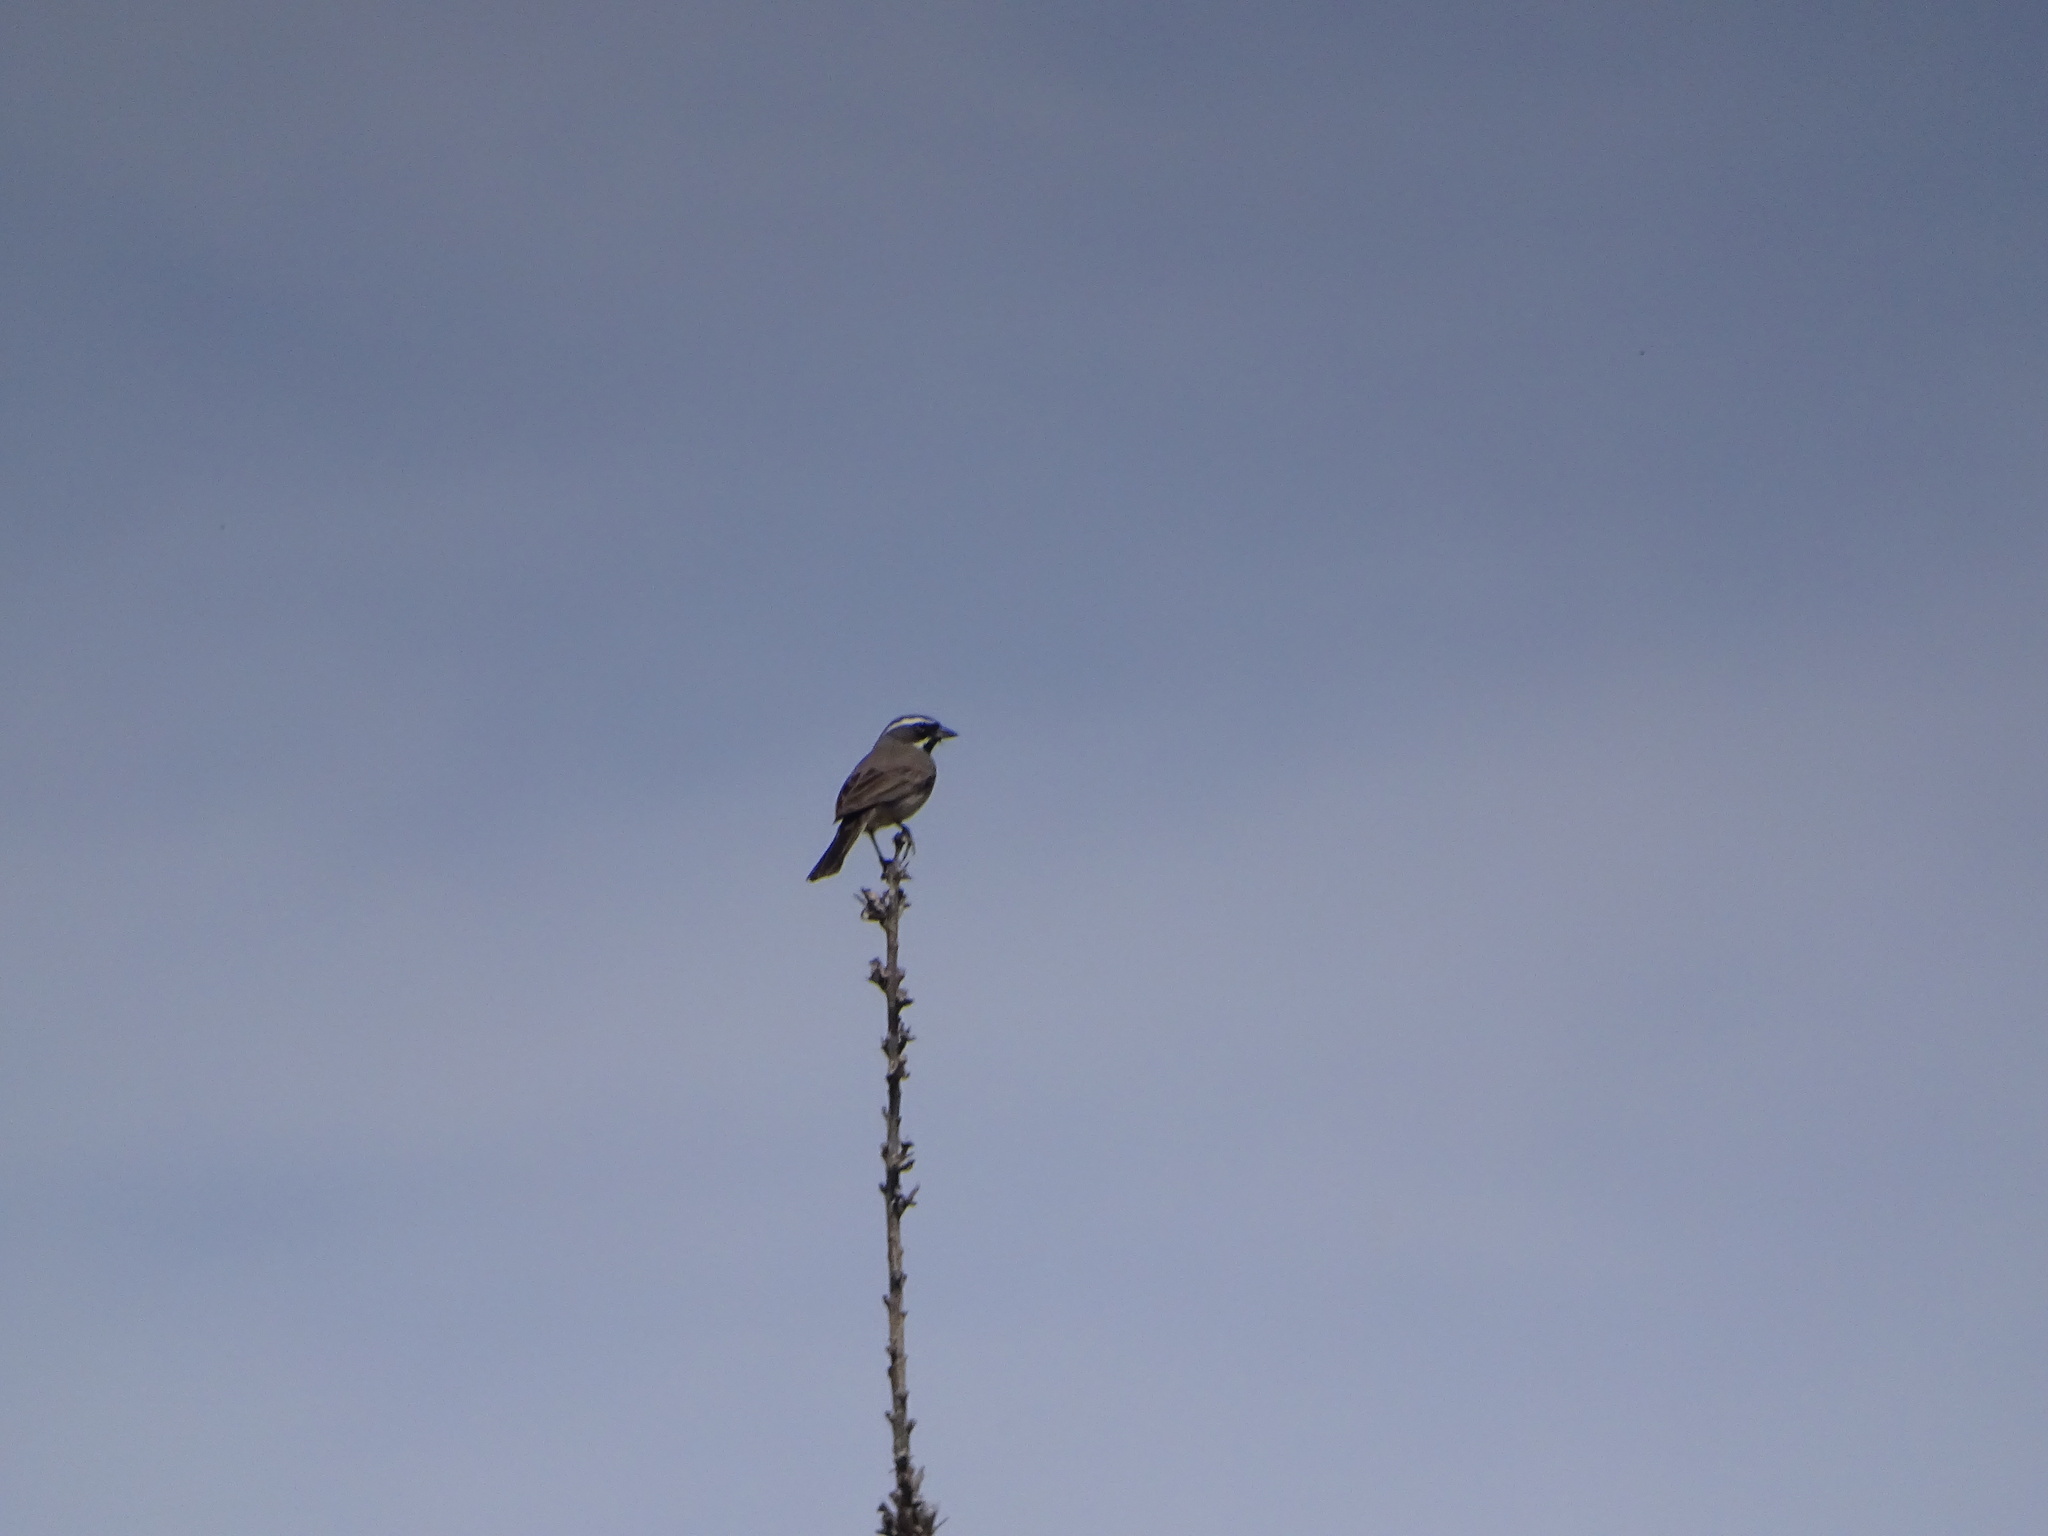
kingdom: Animalia
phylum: Chordata
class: Aves
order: Passeriformes
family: Passerellidae
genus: Amphispiza
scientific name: Amphispiza bilineata
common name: Black-throated sparrow
